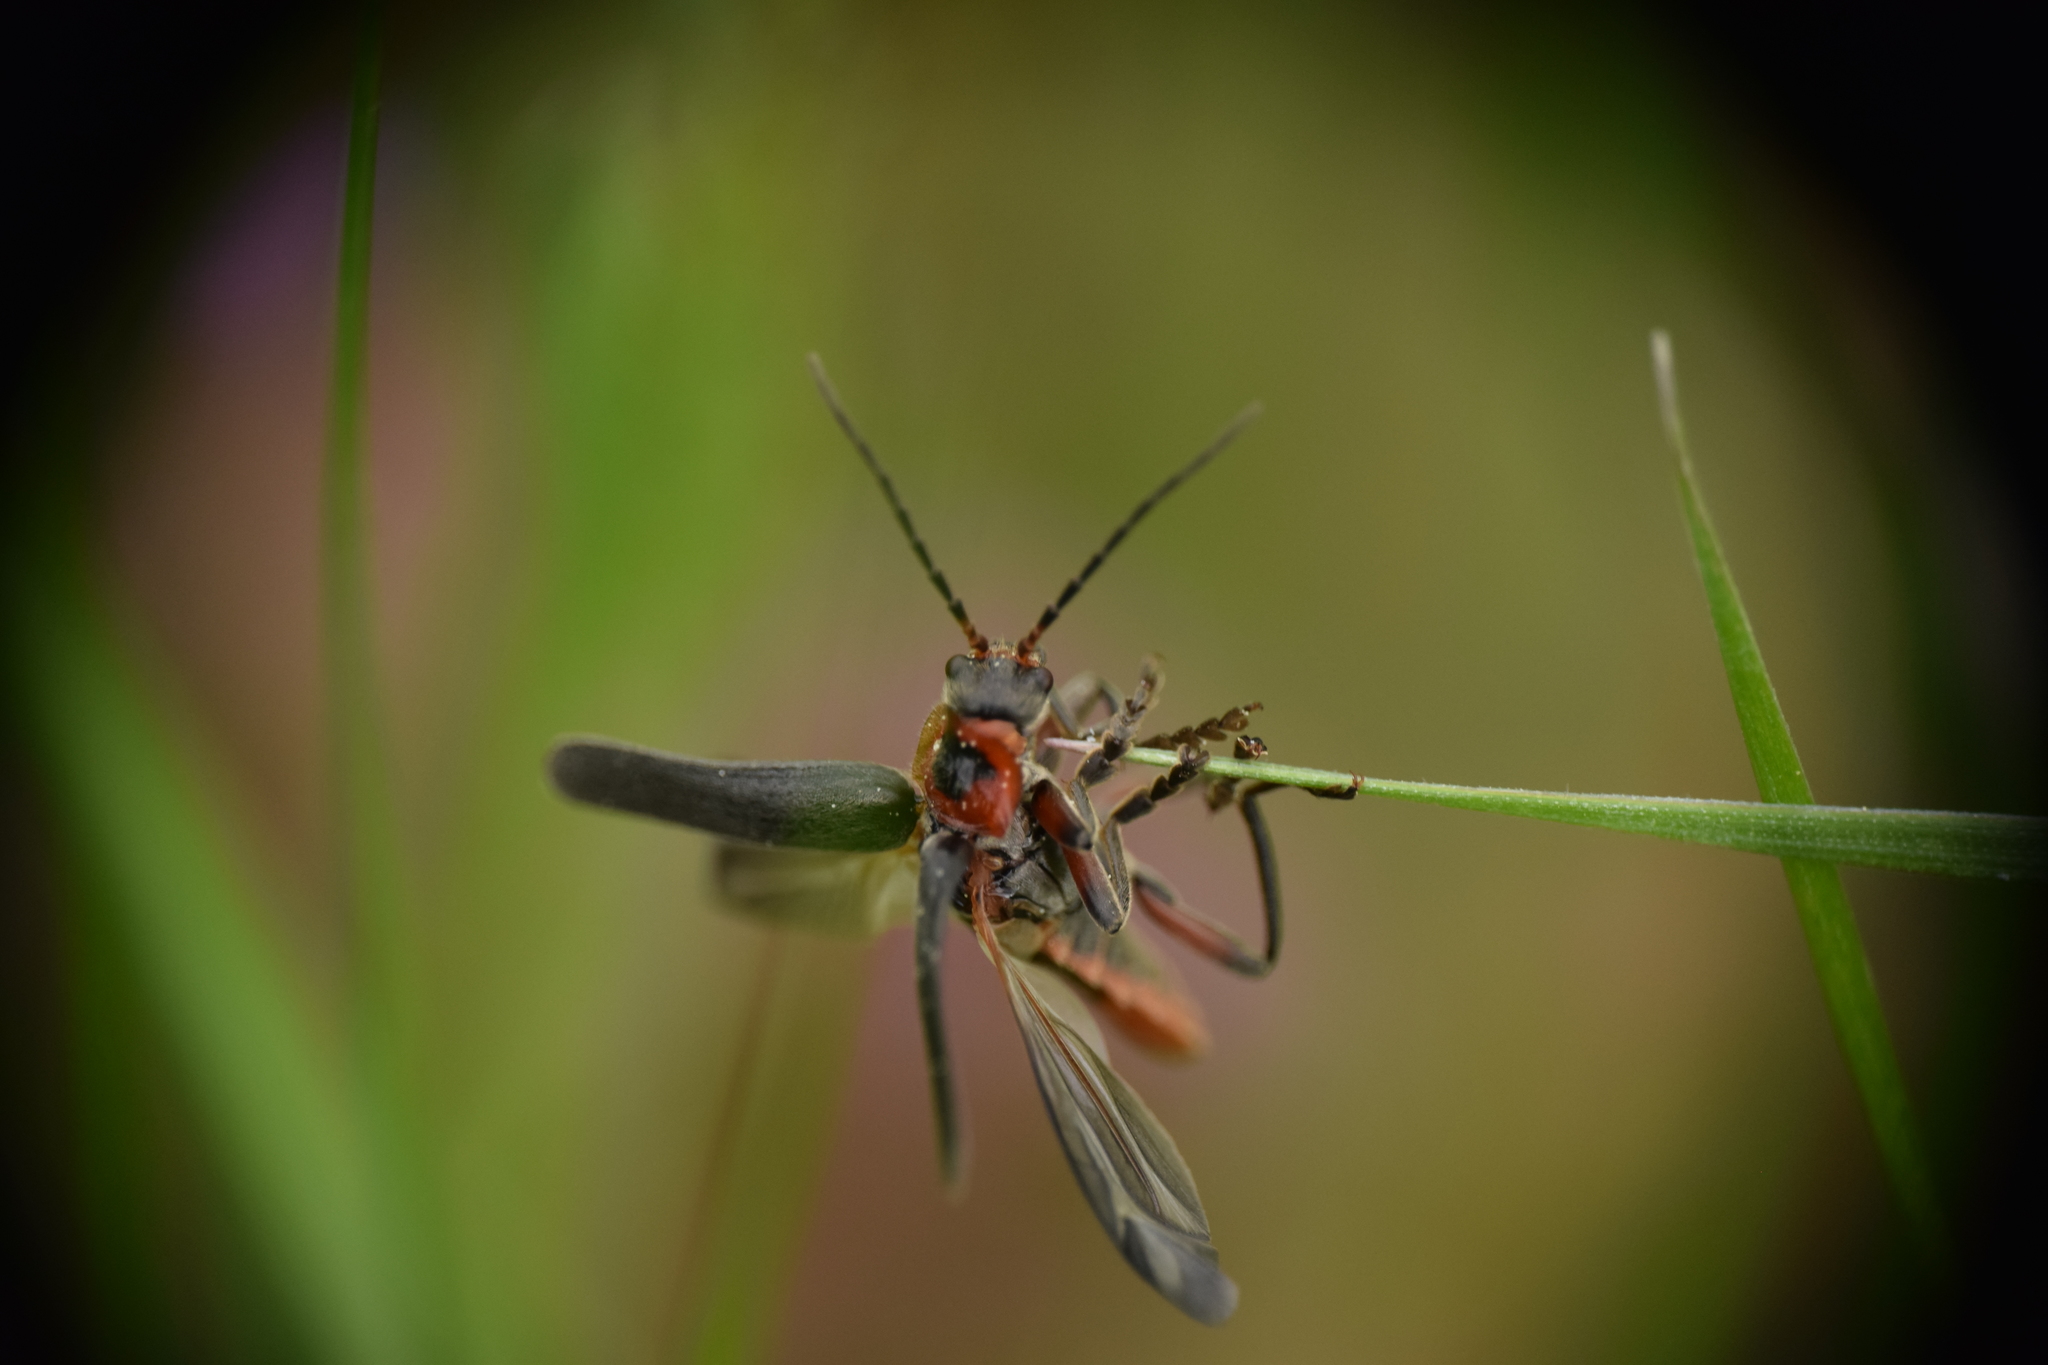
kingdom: Animalia
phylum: Arthropoda
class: Insecta
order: Coleoptera
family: Cantharidae
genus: Cantharis
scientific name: Cantharis rustica
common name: Soldier beetle
